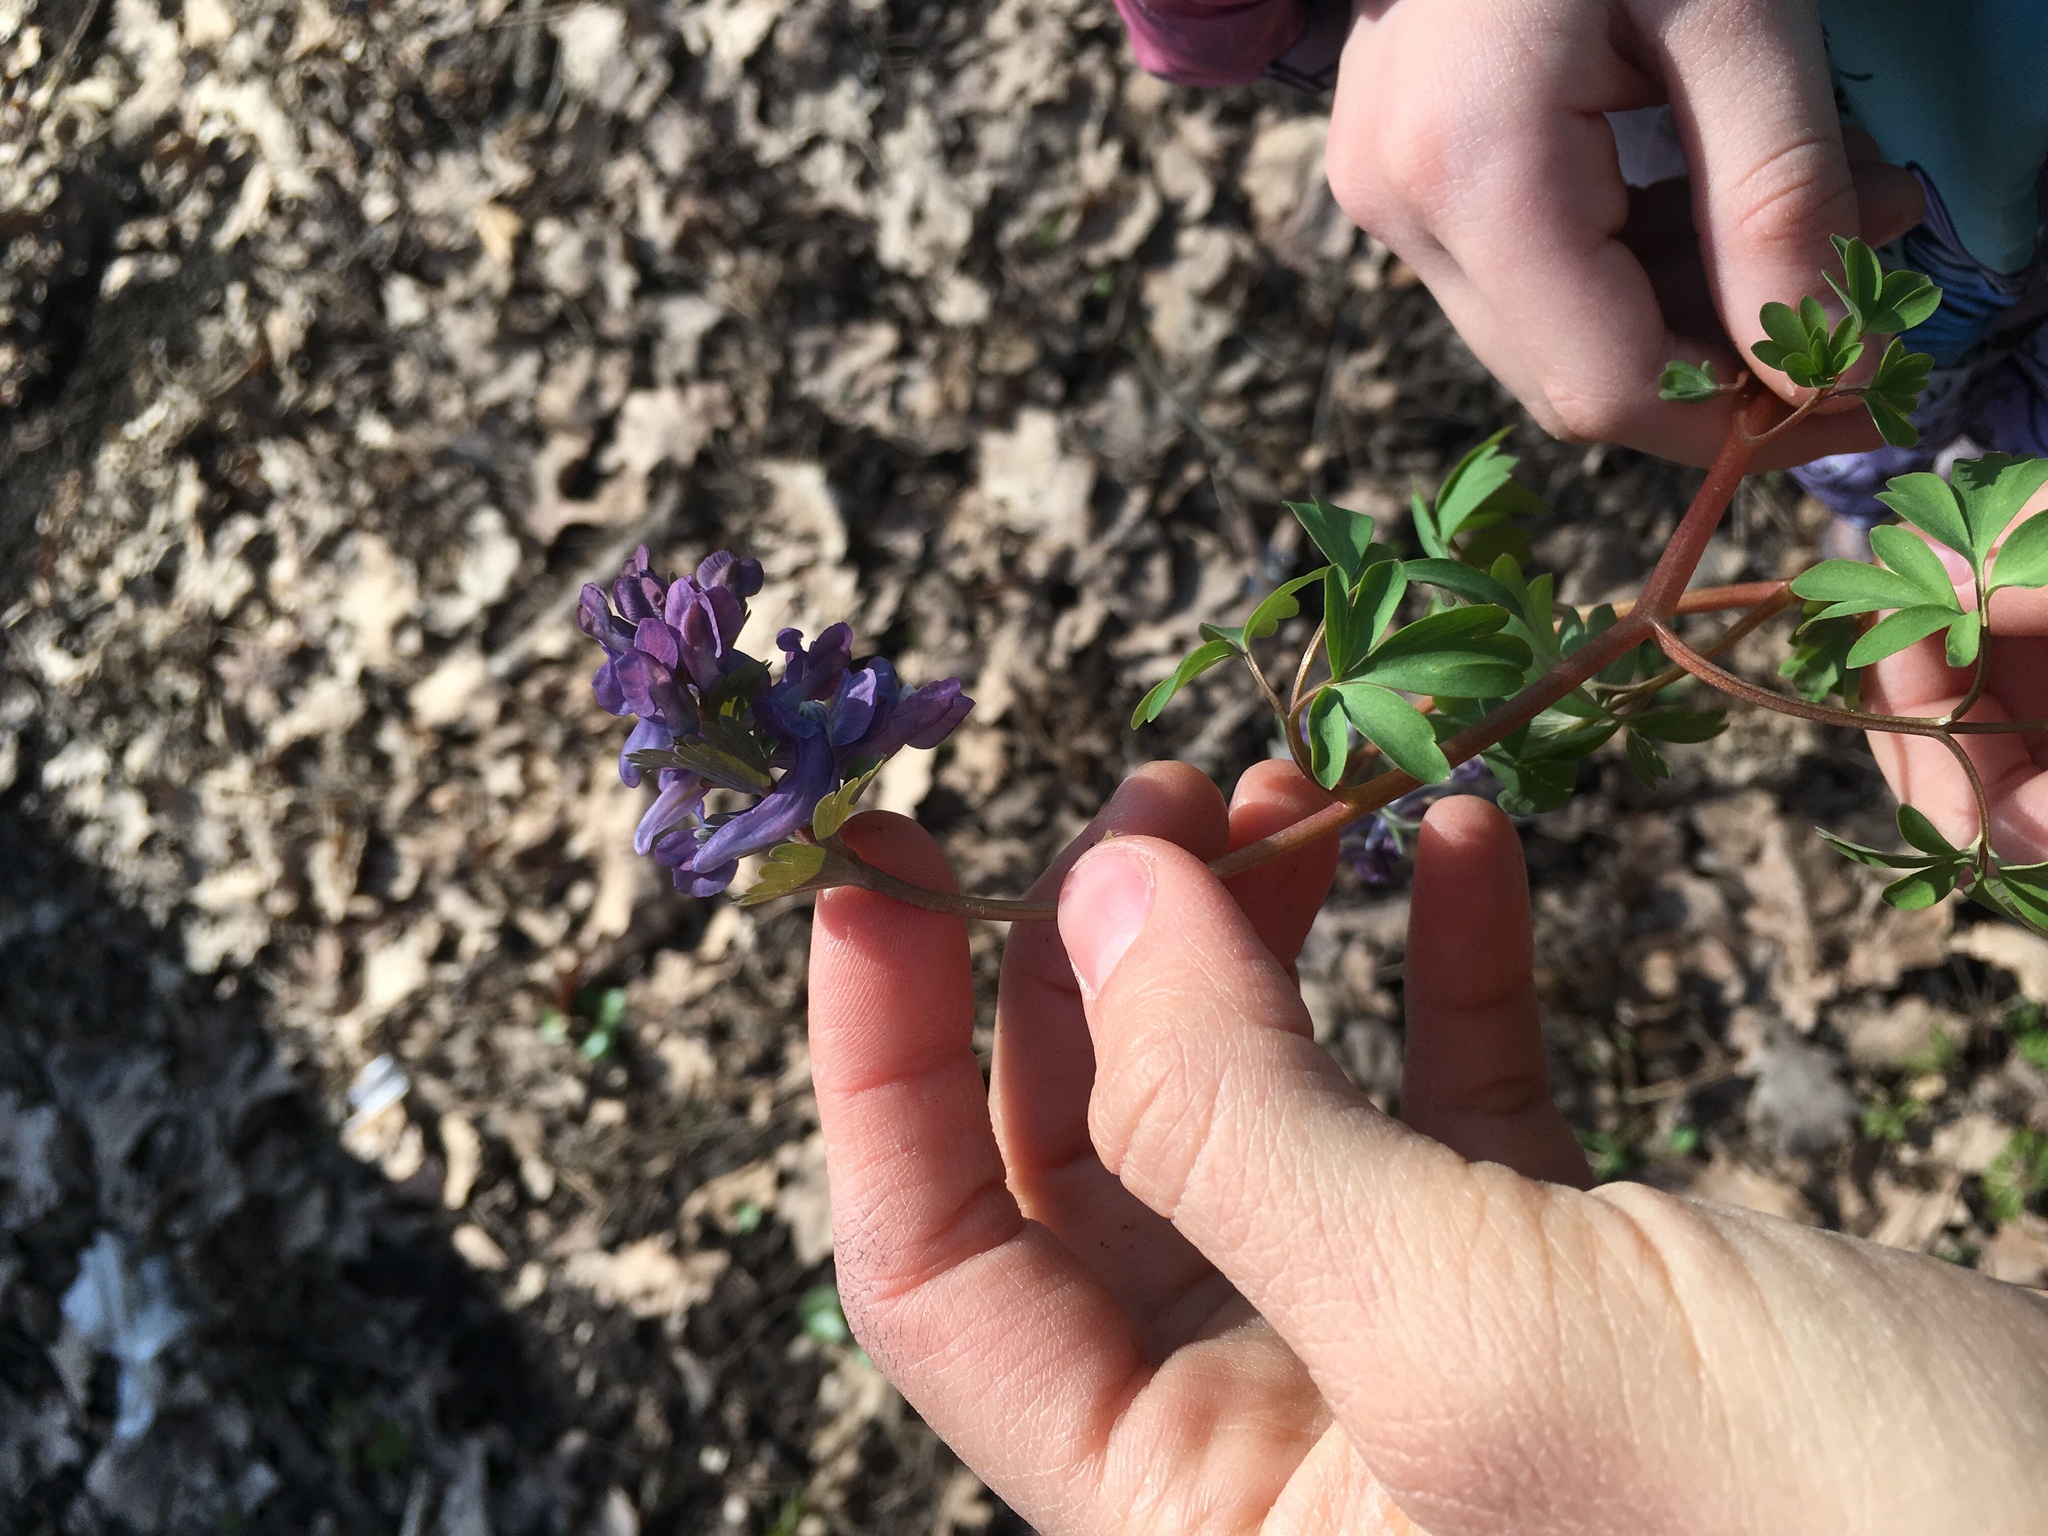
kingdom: Plantae
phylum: Tracheophyta
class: Magnoliopsida
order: Ranunculales
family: Papaveraceae
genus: Corydalis
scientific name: Corydalis solida
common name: Bird-in-a-bush
